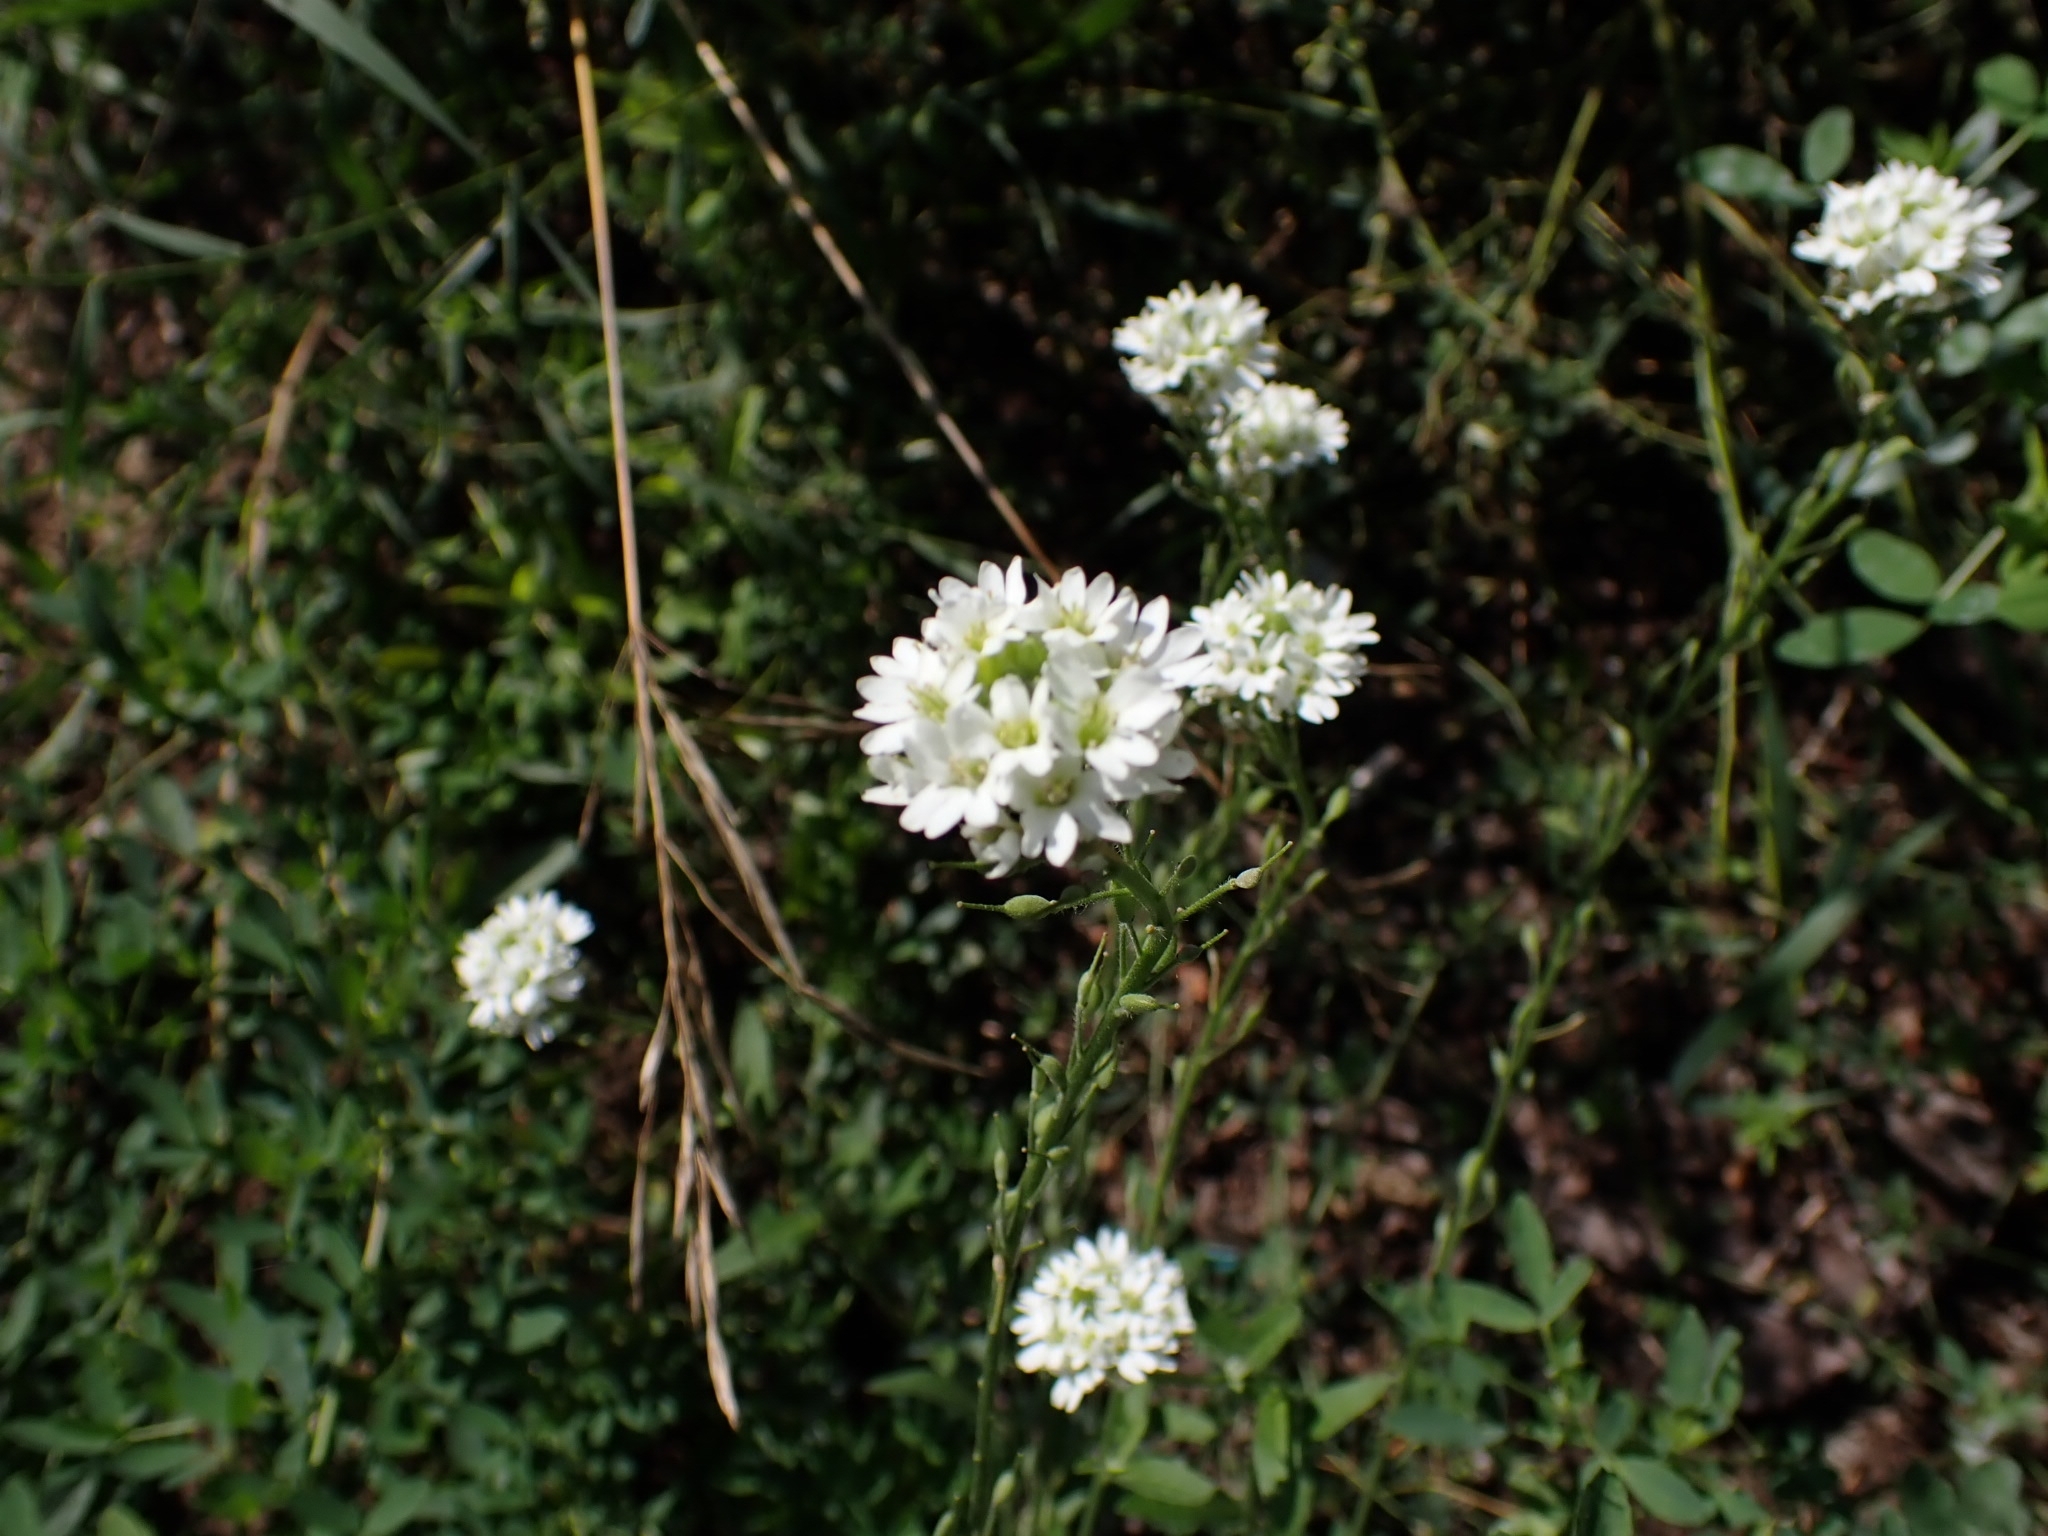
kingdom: Plantae
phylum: Tracheophyta
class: Magnoliopsida
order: Brassicales
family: Brassicaceae
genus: Berteroa
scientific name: Berteroa incana
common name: Hoary alison
